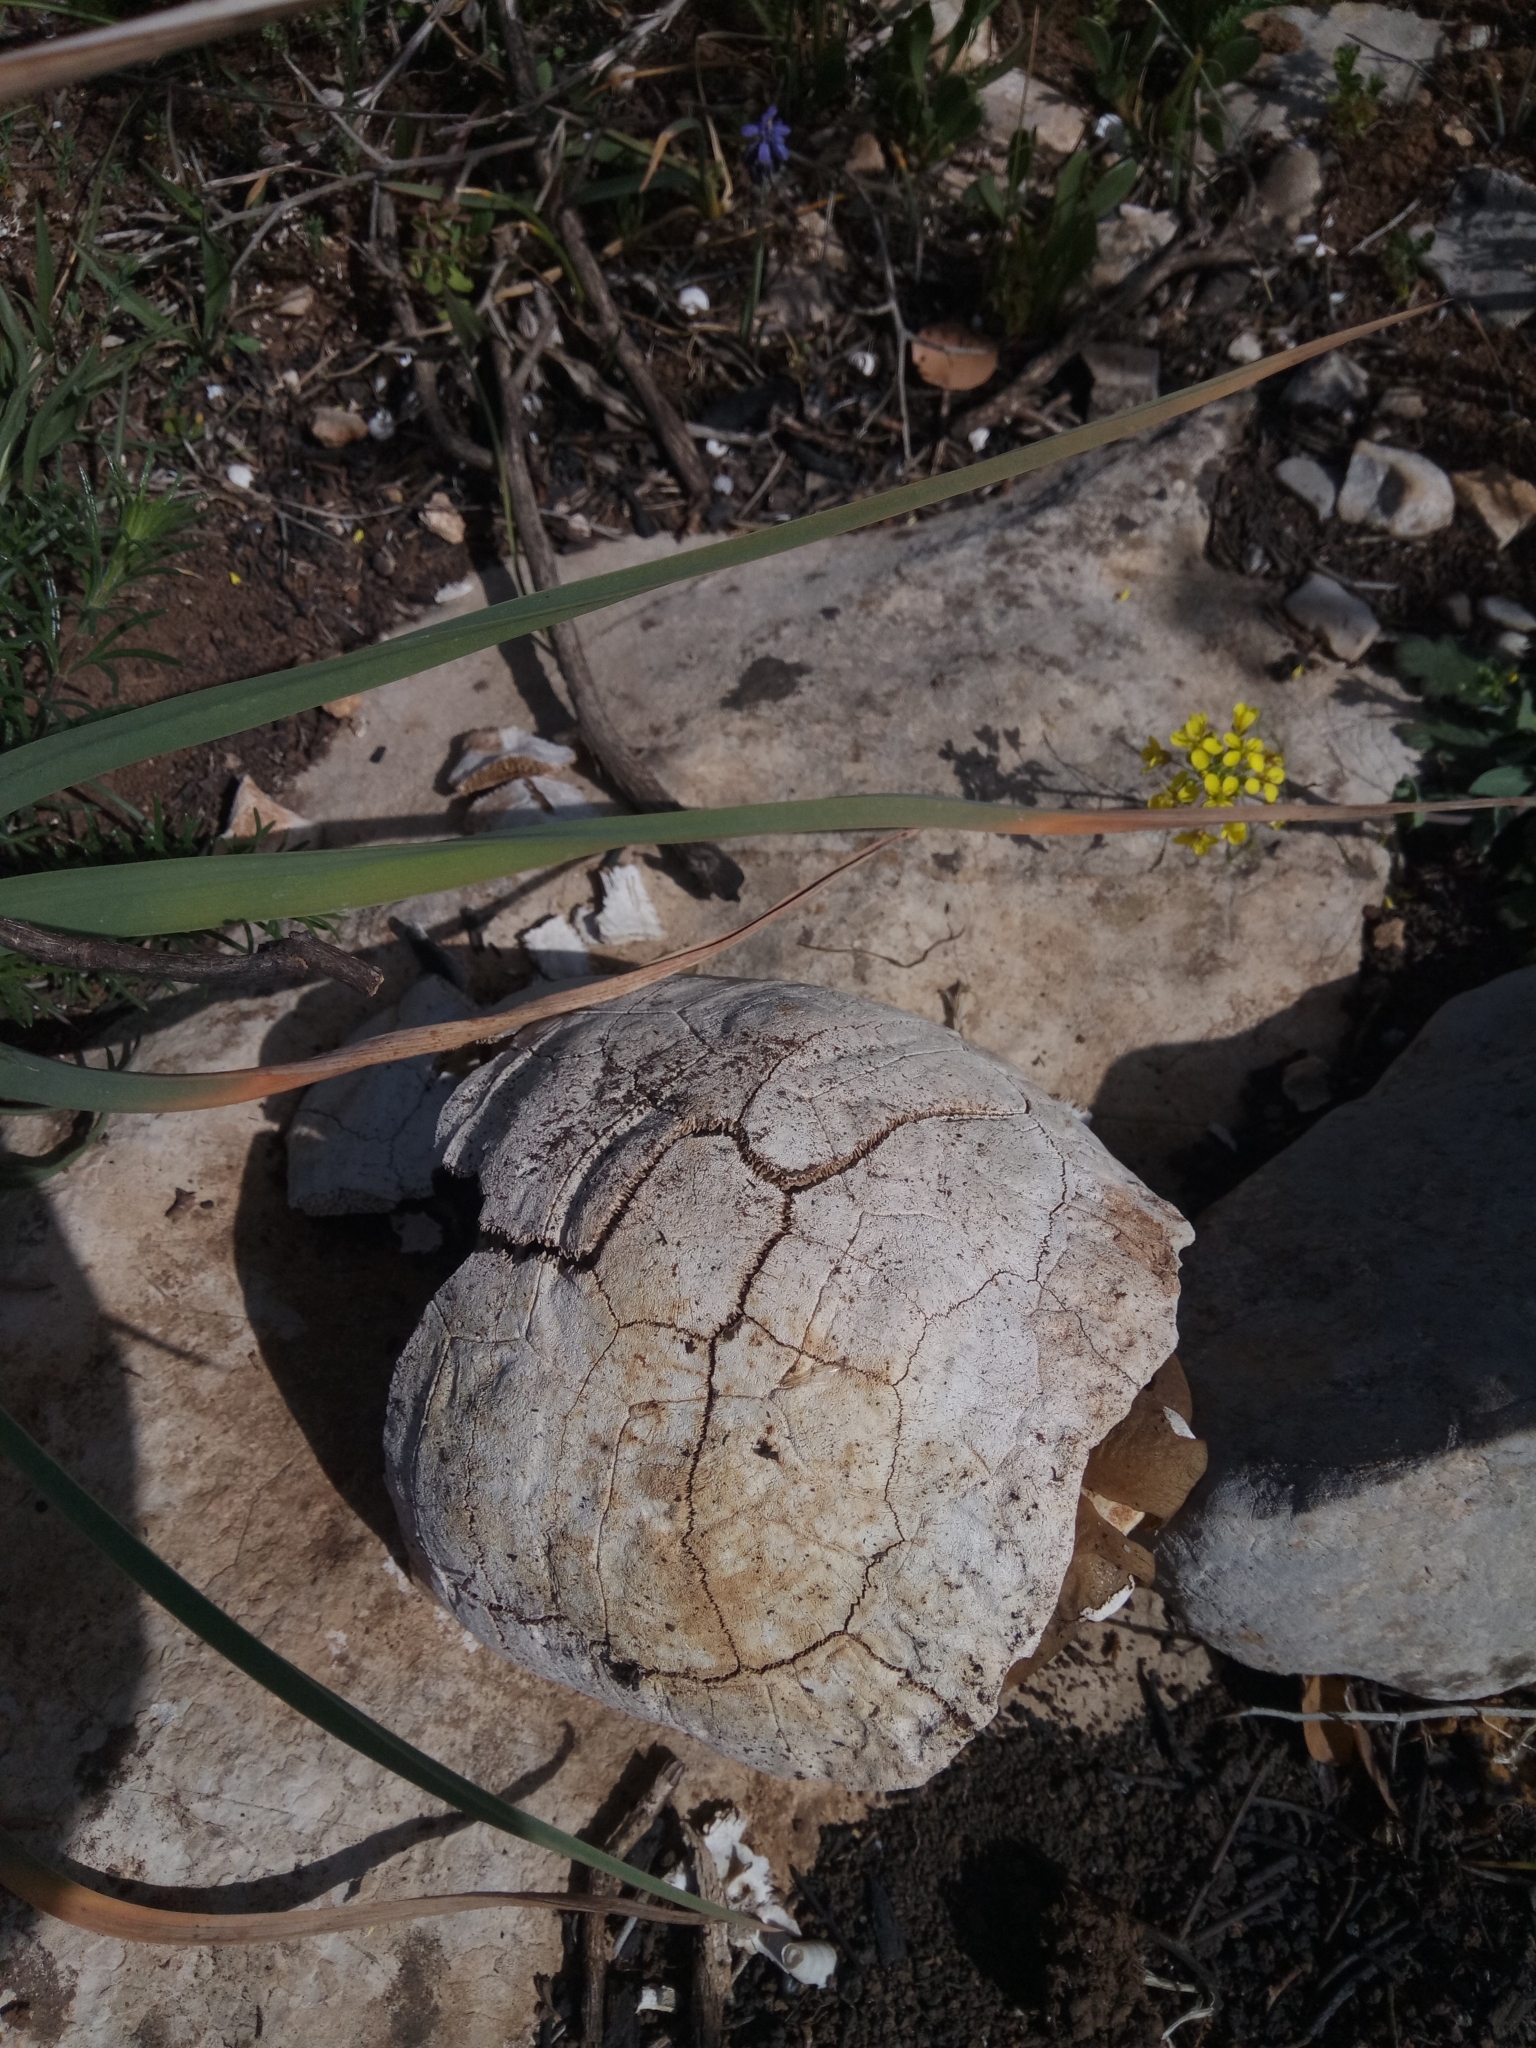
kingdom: Animalia
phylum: Chordata
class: Testudines
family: Testudinidae
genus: Testudo
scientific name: Testudo graeca
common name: Common tortoise
